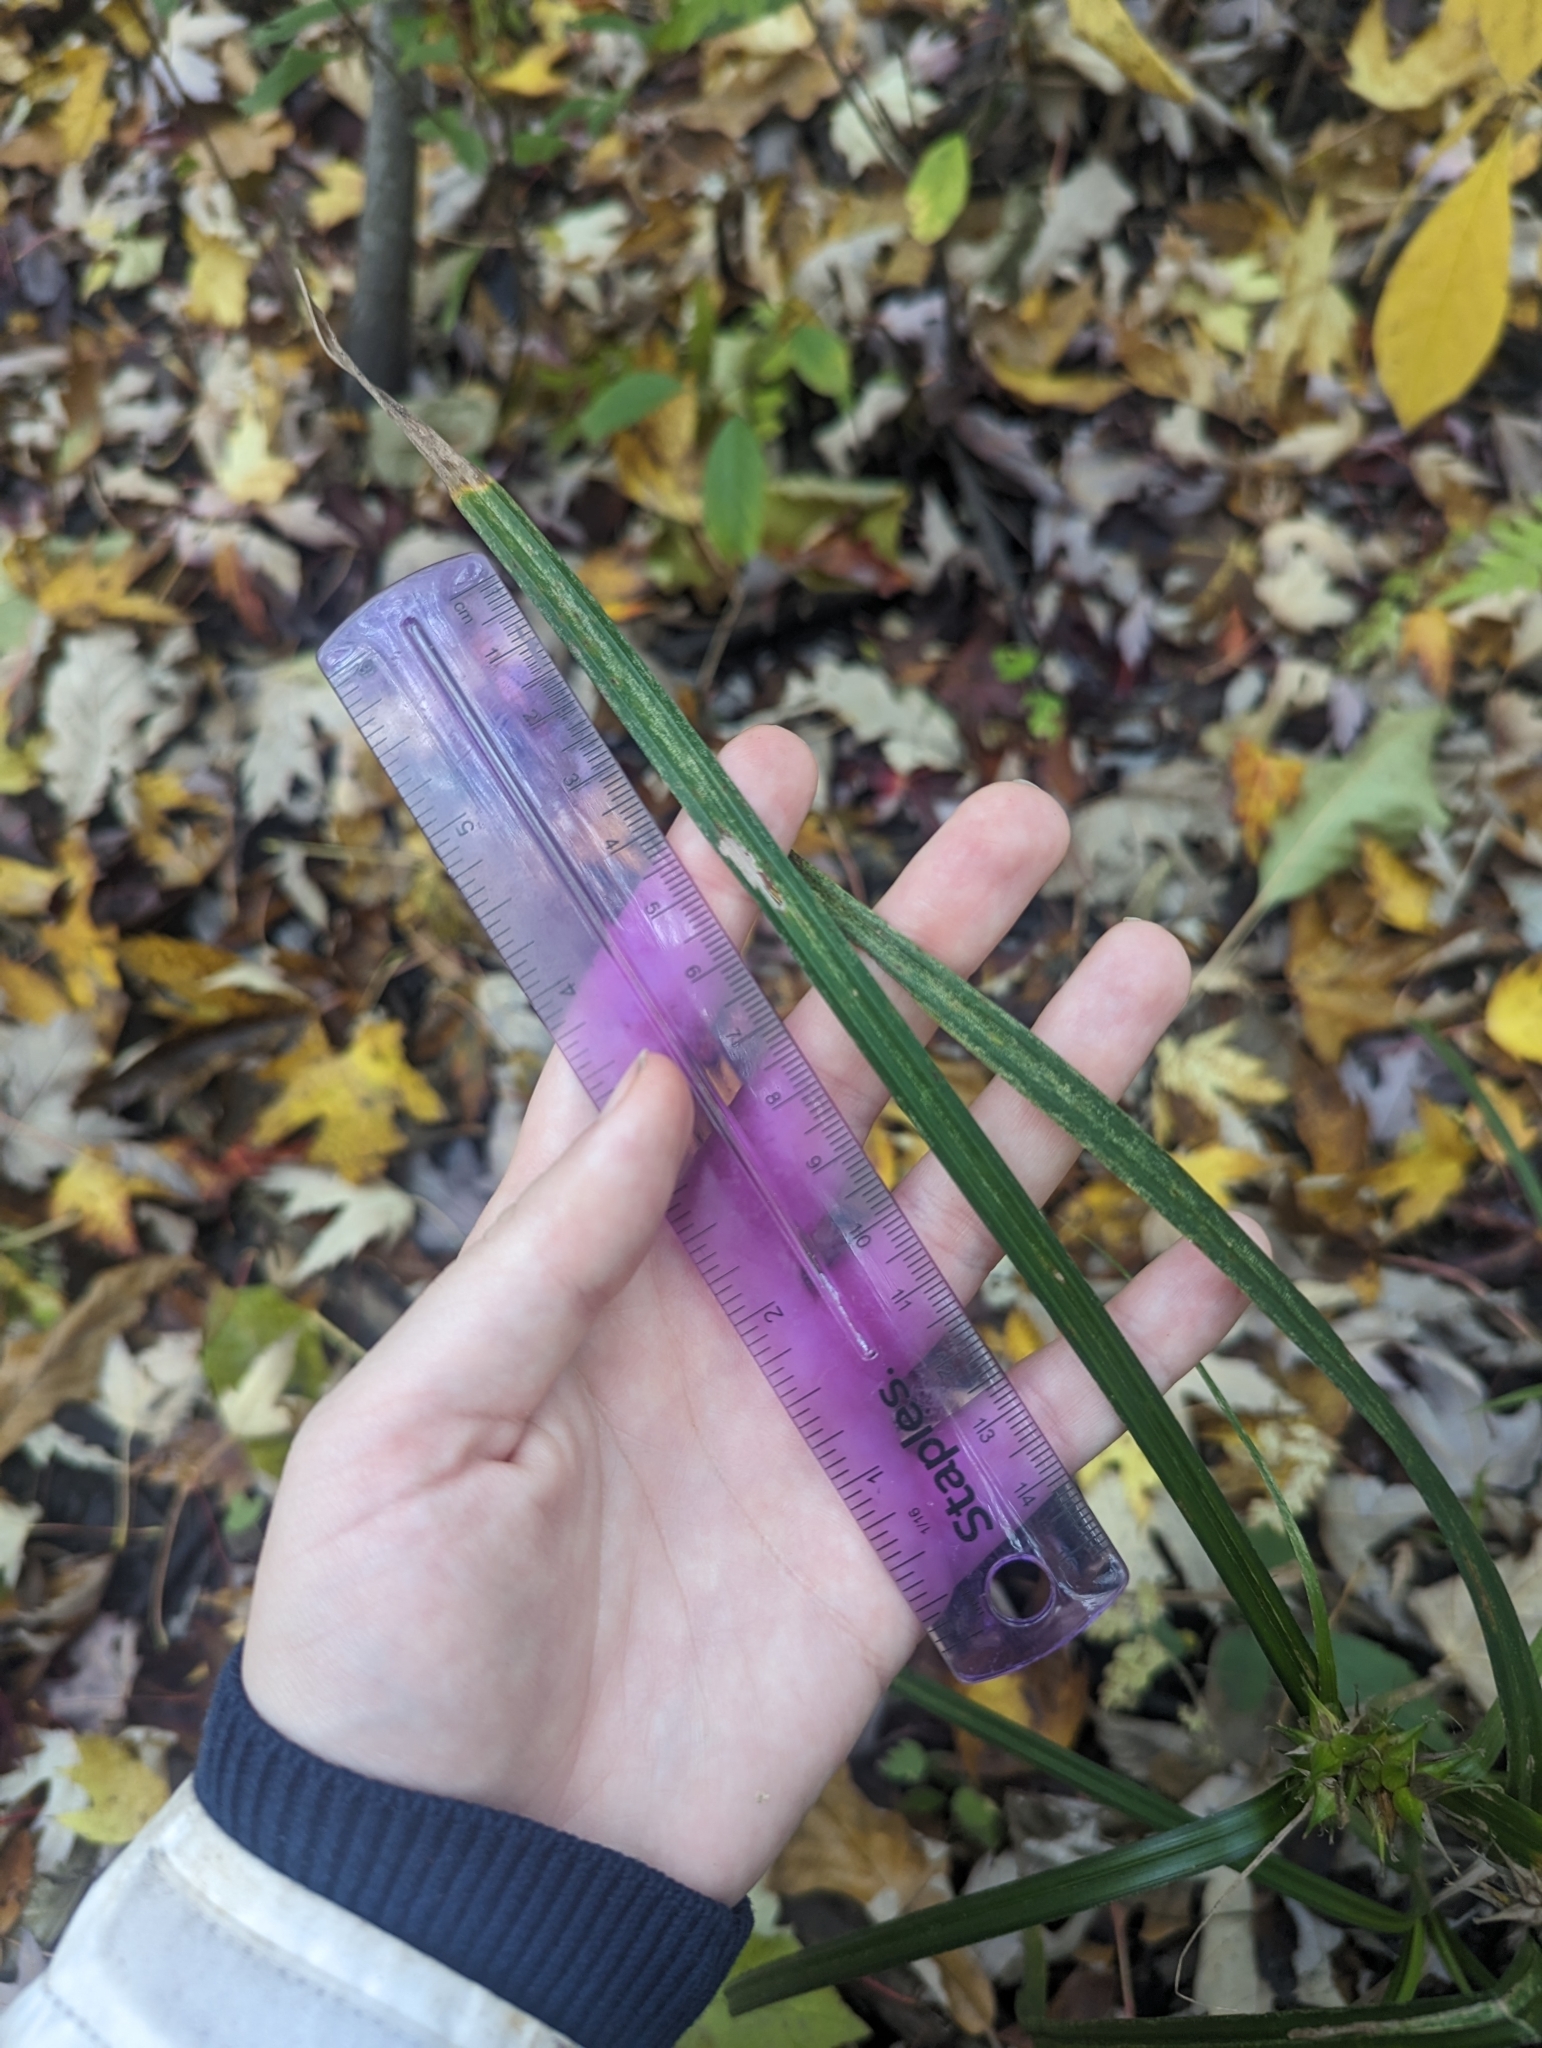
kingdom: Plantae
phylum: Tracheophyta
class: Liliopsida
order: Poales
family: Cyperaceae
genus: Carex
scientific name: Carex lupulina
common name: Hop sedge
